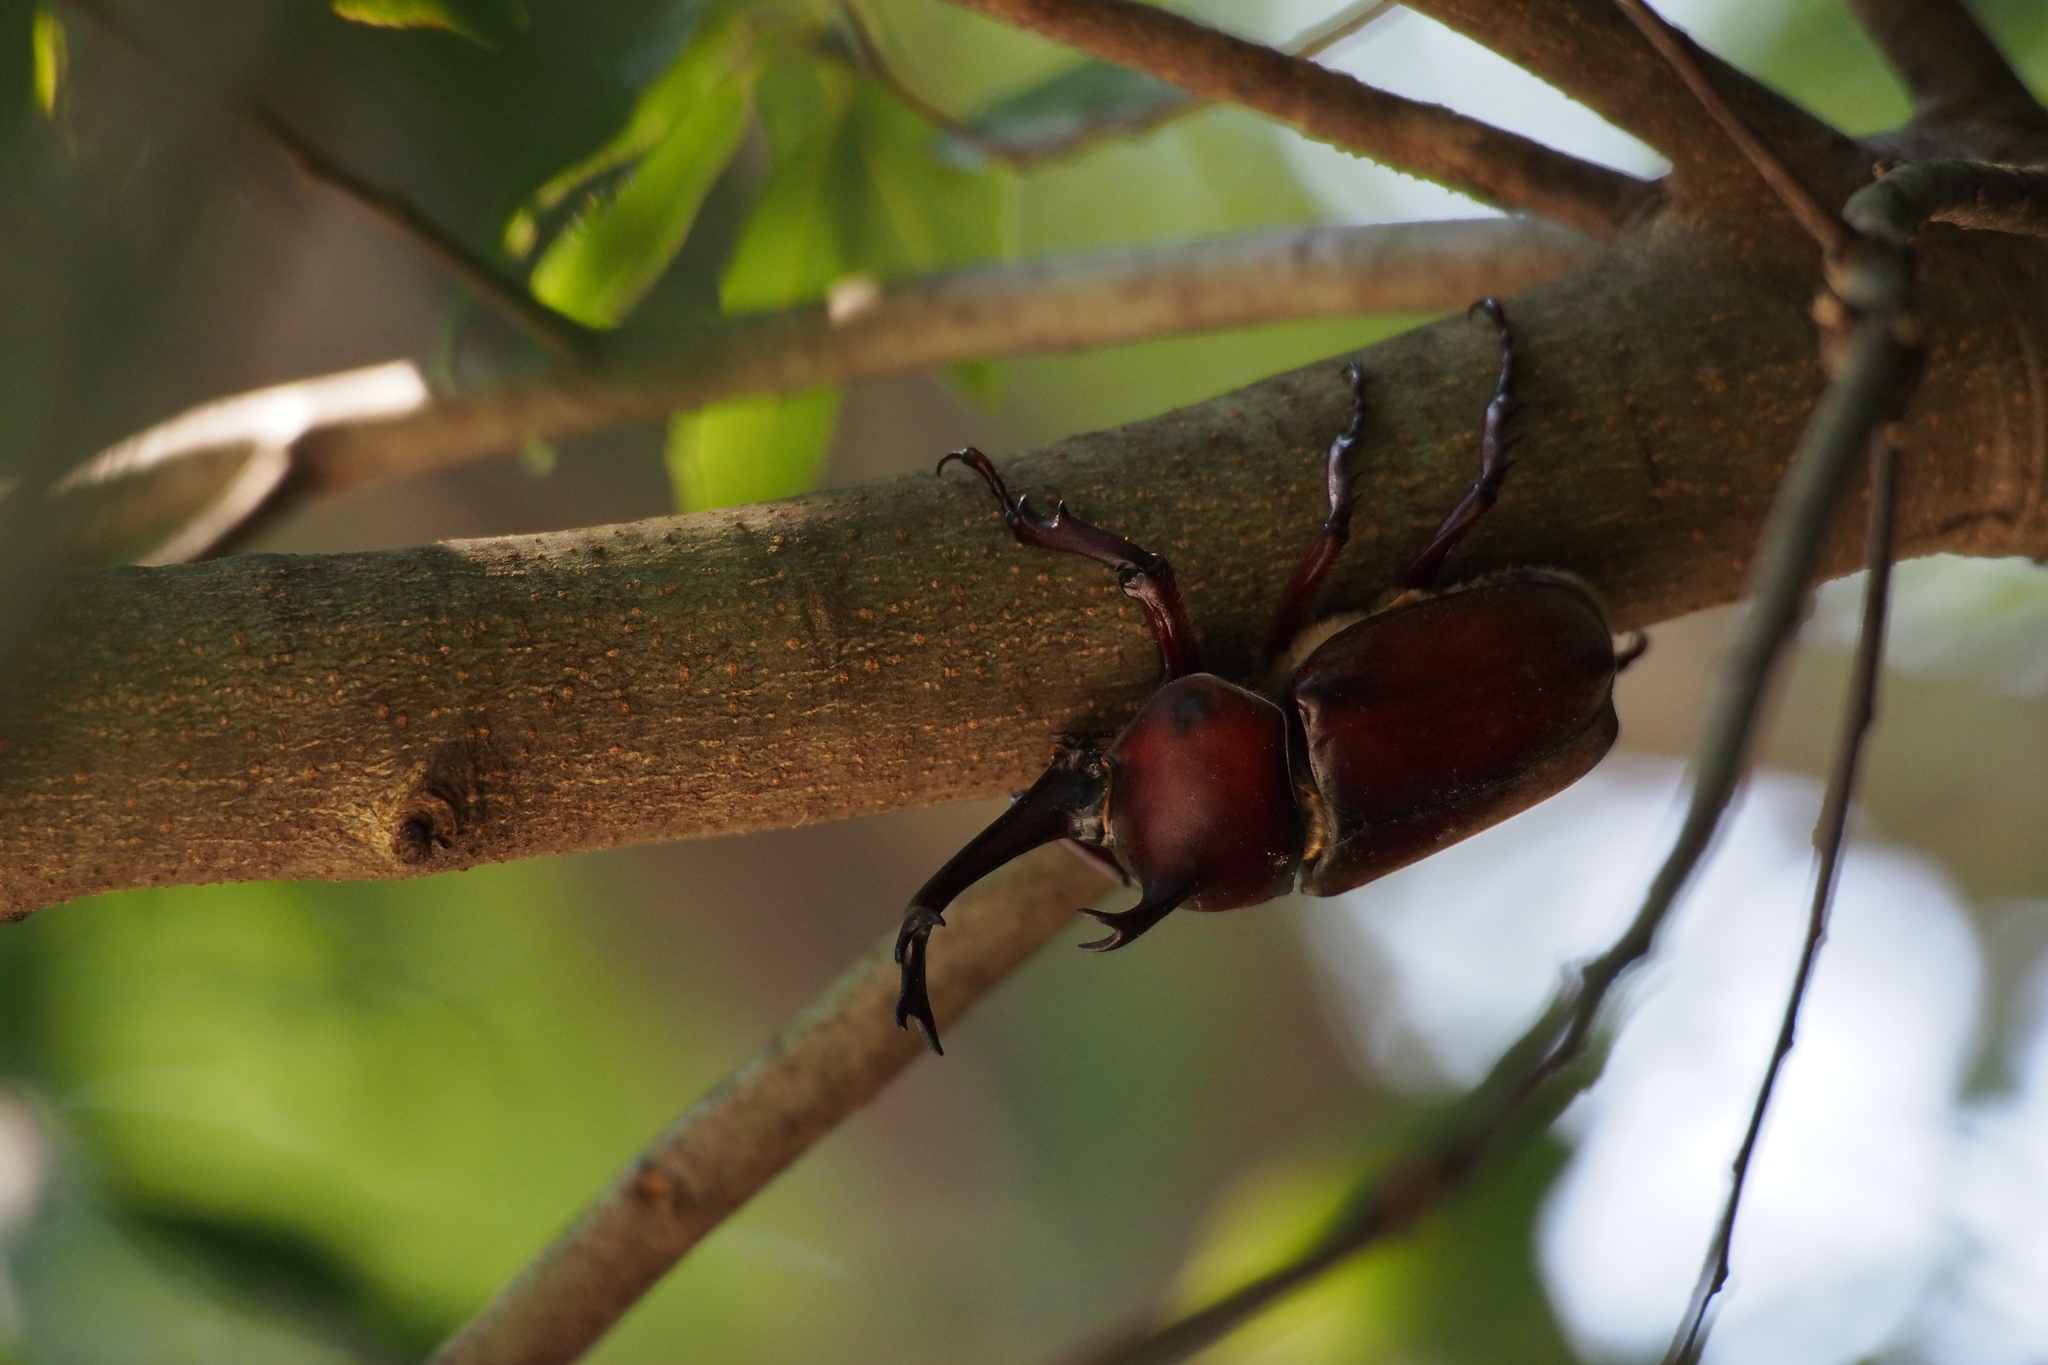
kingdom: Animalia
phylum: Arthropoda
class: Insecta
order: Coleoptera
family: Scarabaeidae
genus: Trypoxylus
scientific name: Trypoxylus dichotomus
